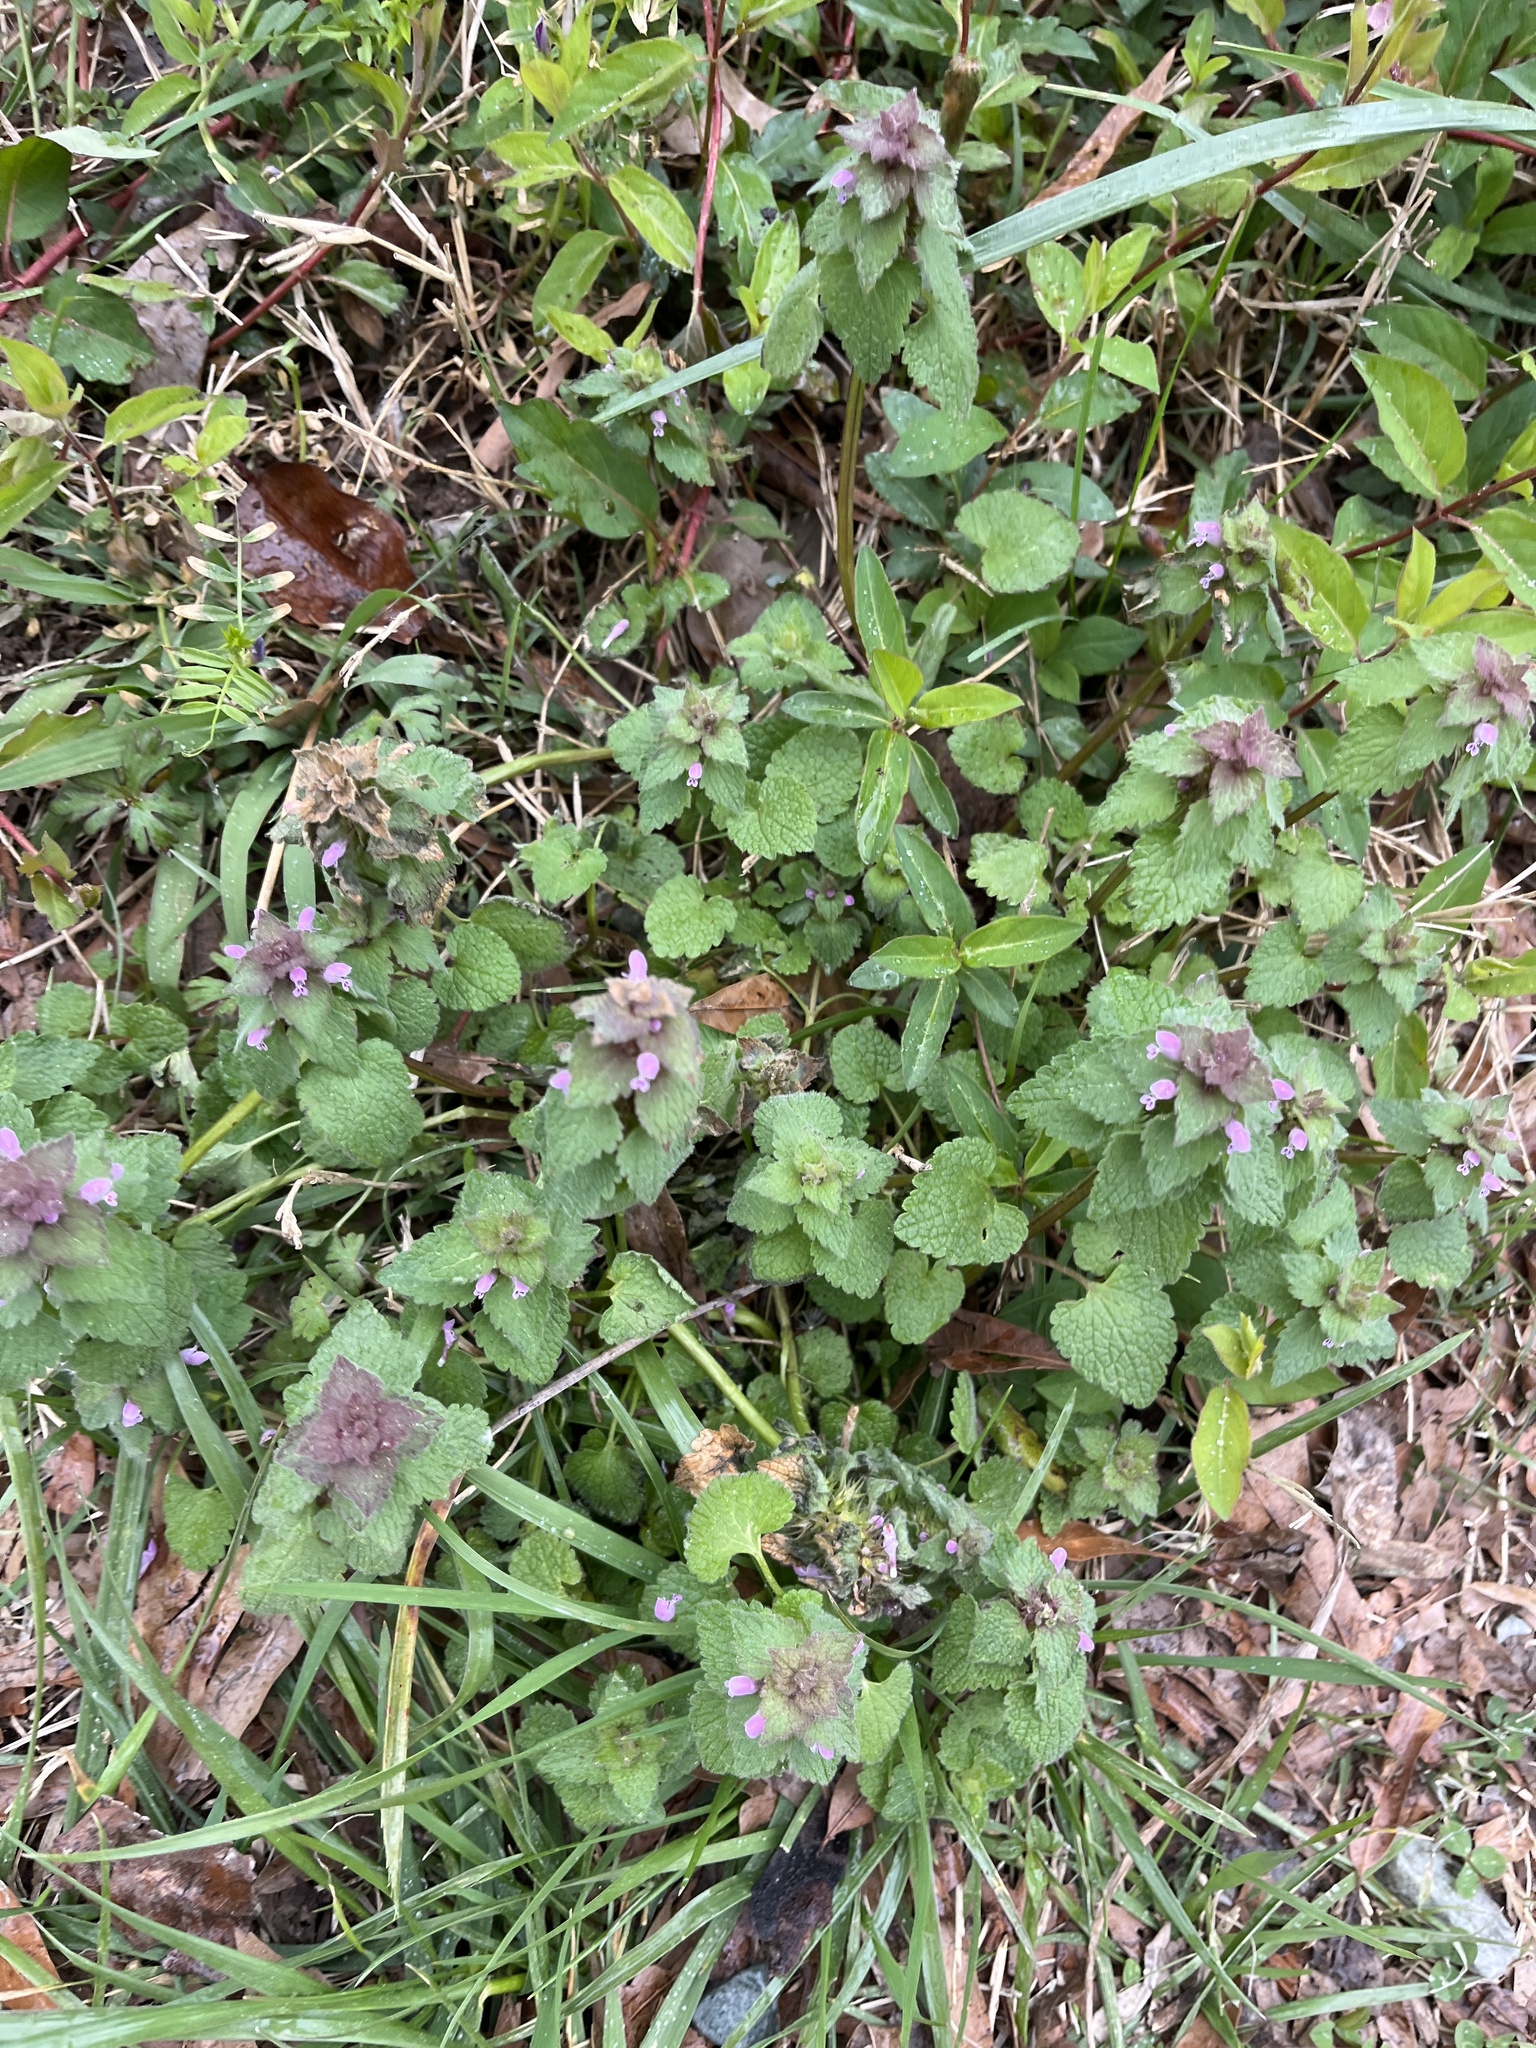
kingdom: Plantae
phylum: Tracheophyta
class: Magnoliopsida
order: Lamiales
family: Lamiaceae
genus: Lamium
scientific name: Lamium purpureum
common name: Red dead-nettle
